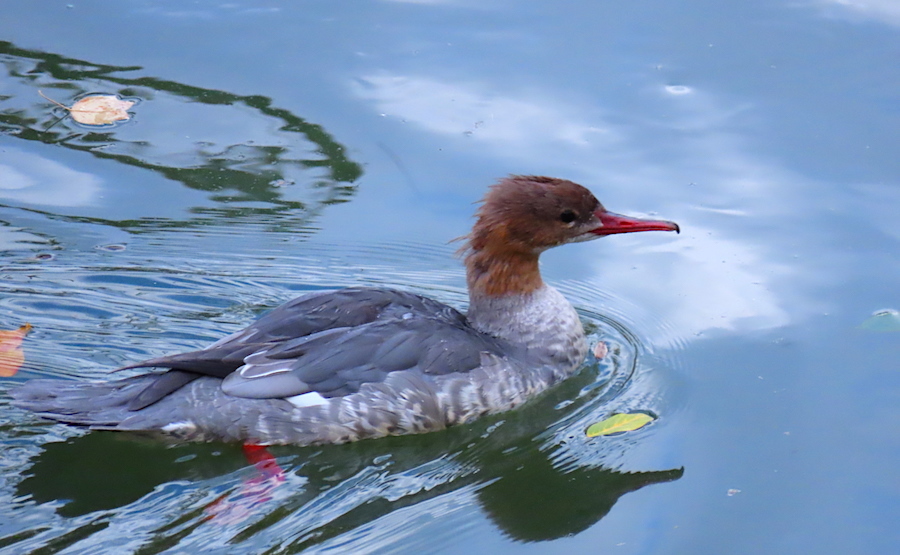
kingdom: Animalia
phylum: Chordata
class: Aves
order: Anseriformes
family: Anatidae
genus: Mergus
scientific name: Mergus merganser
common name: Common merganser
